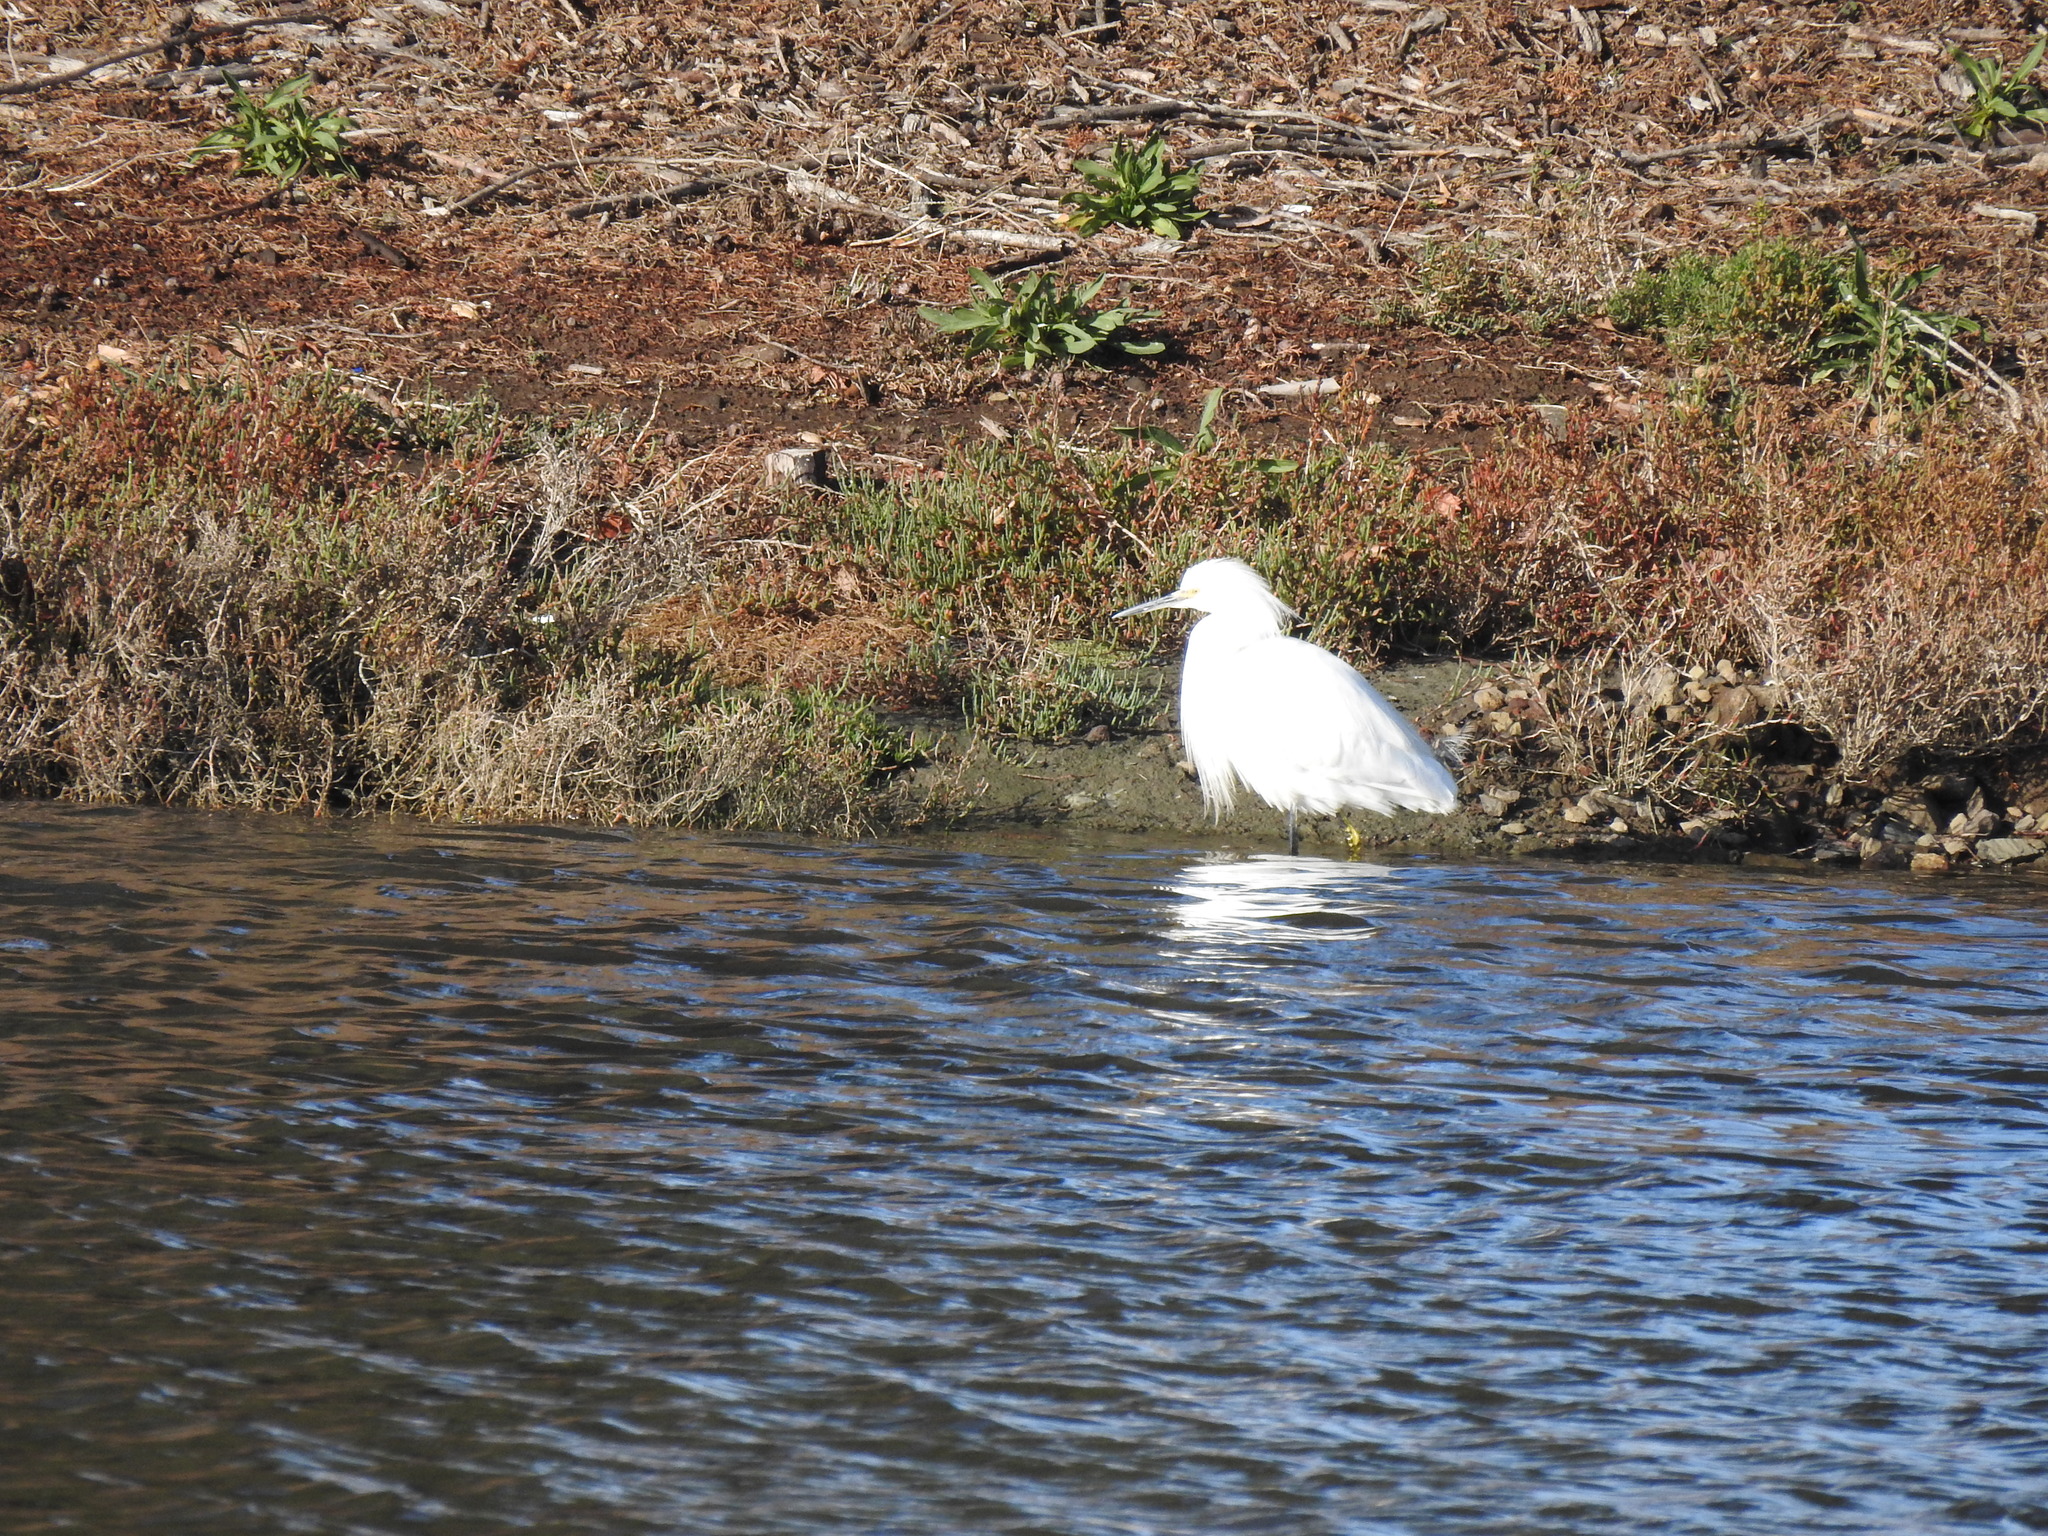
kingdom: Animalia
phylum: Chordata
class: Aves
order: Pelecaniformes
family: Ardeidae
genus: Egretta
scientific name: Egretta thula
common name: Snowy egret
